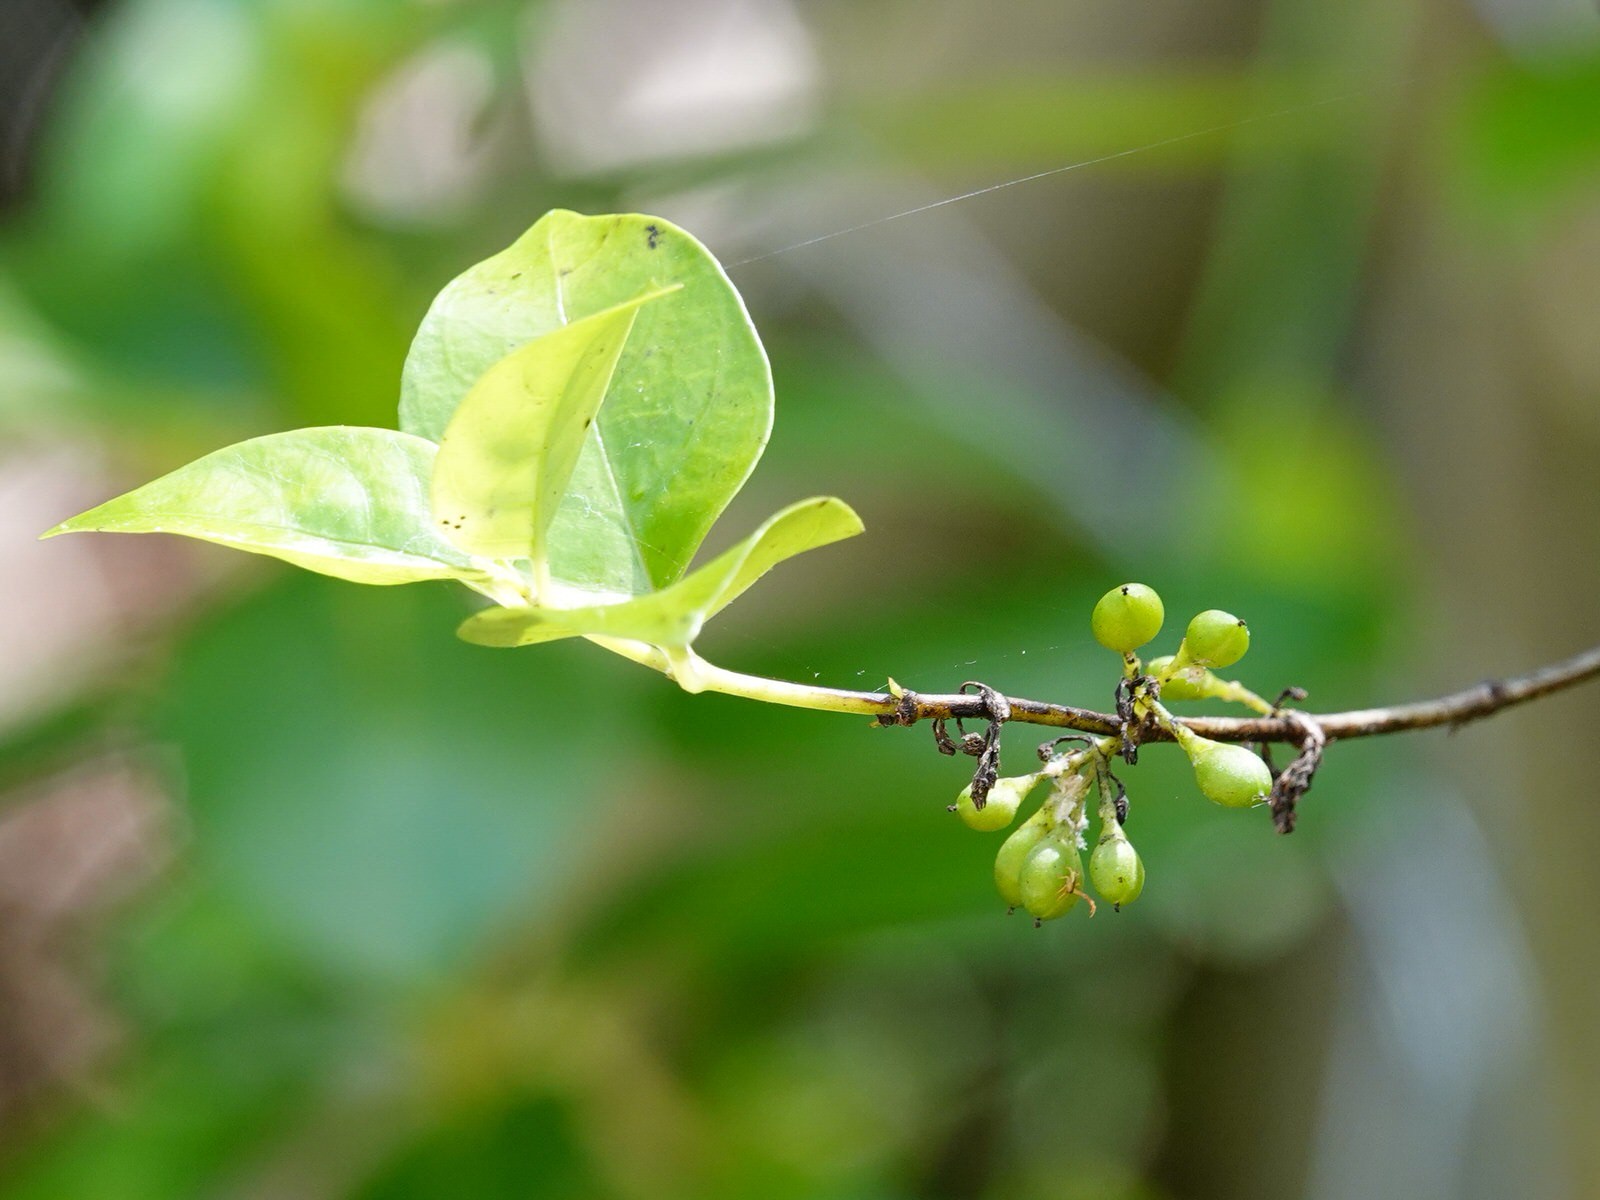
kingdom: Plantae
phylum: Tracheophyta
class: Magnoliopsida
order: Gentianales
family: Loganiaceae
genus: Geniostoma
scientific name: Geniostoma ligustrifolium
